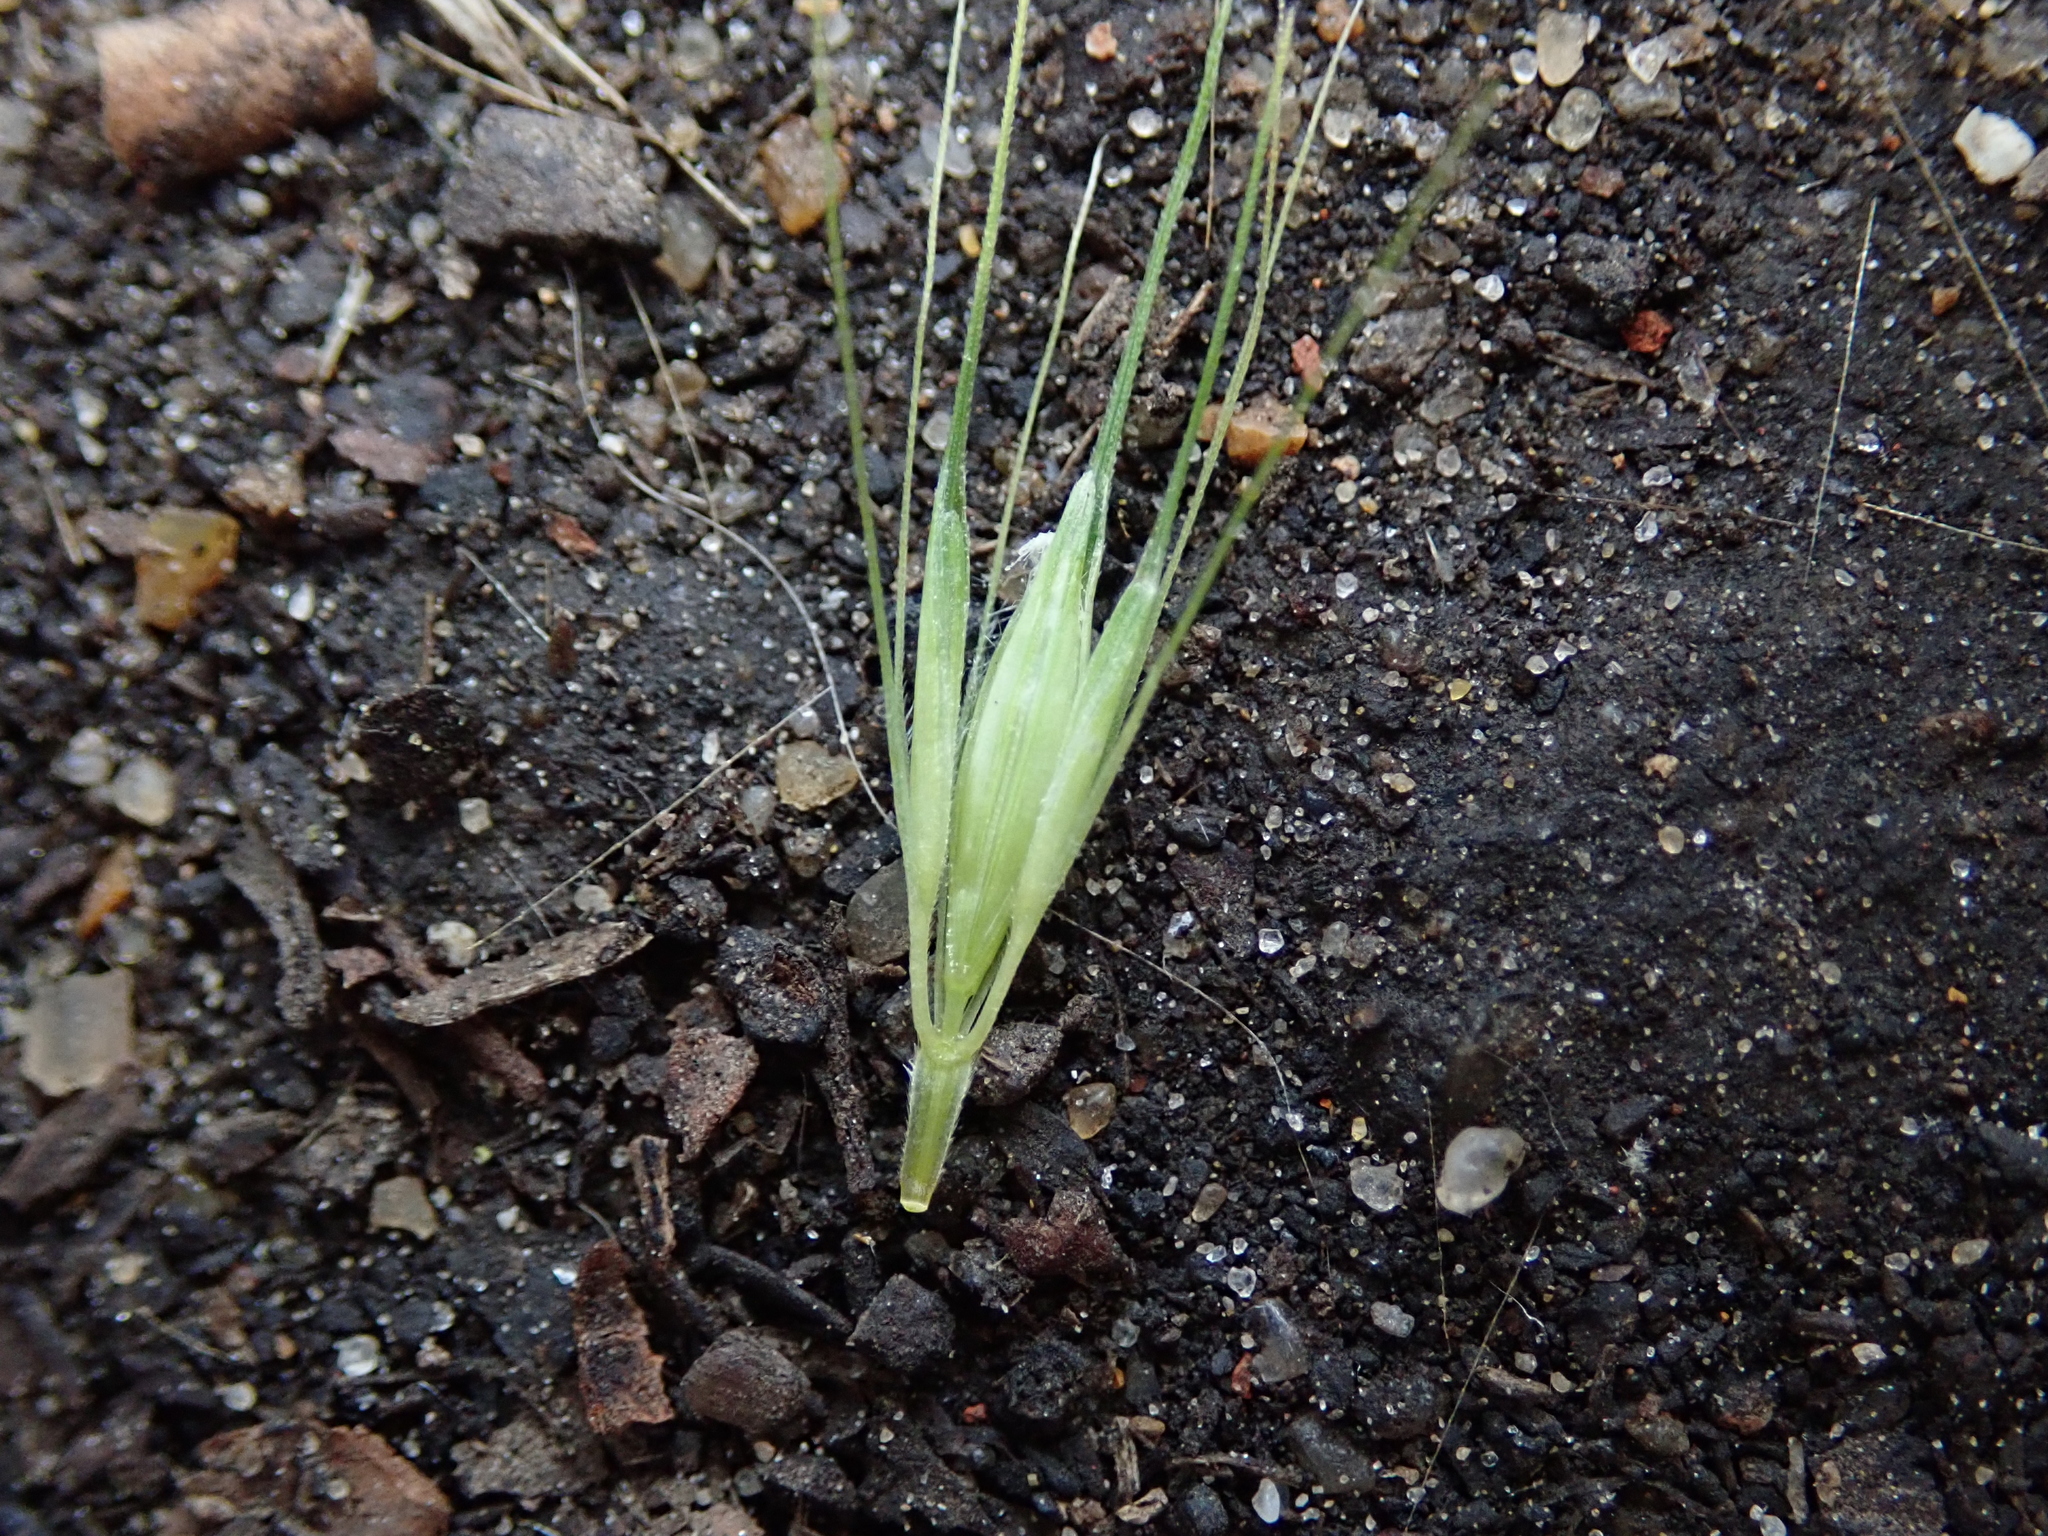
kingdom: Plantae
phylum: Tracheophyta
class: Liliopsida
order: Poales
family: Poaceae
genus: Hordeum
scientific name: Hordeum murinum
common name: Wall barley
